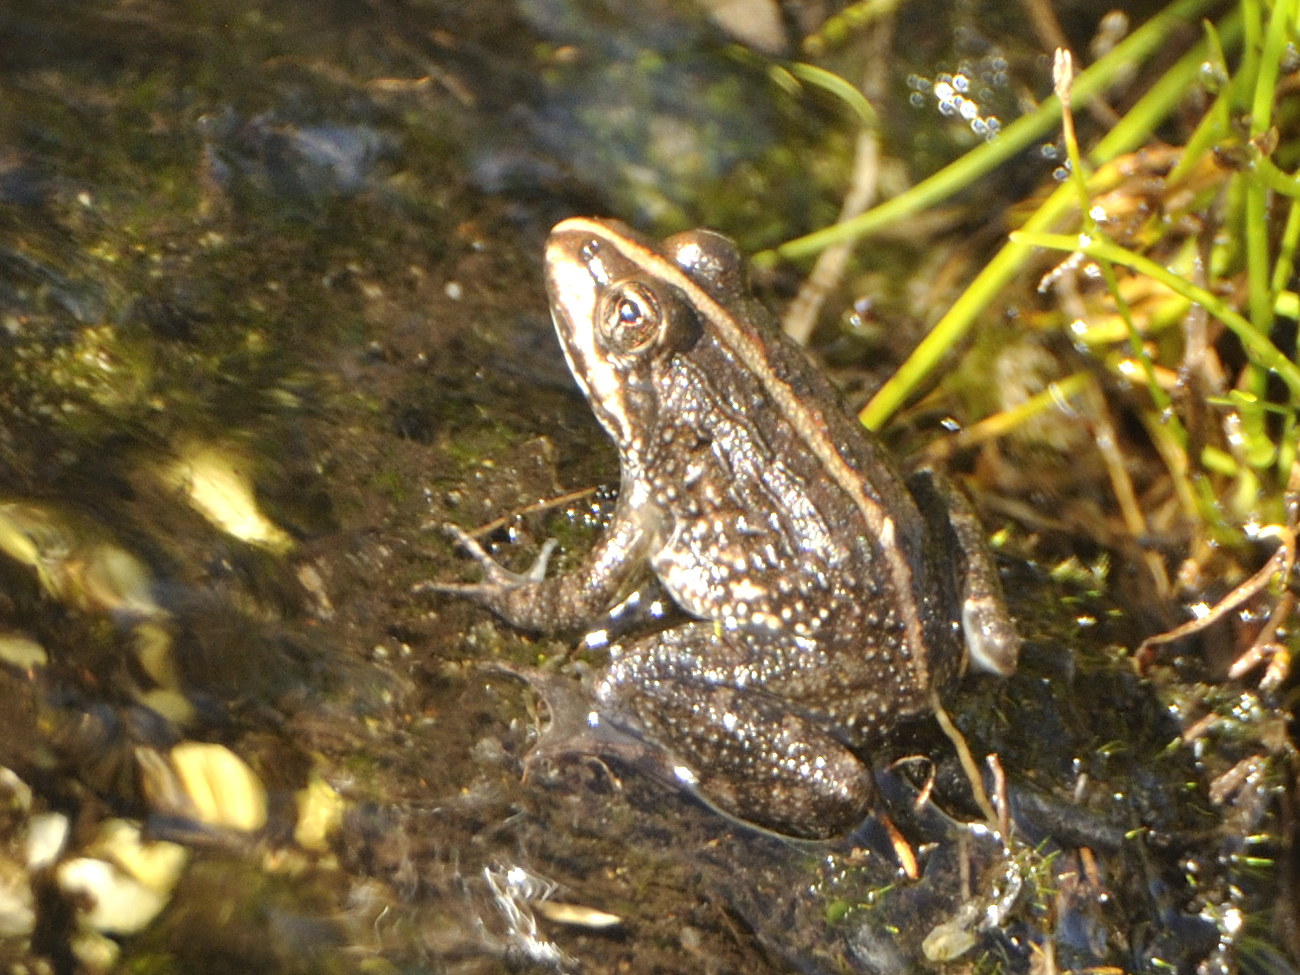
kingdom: Animalia
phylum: Chordata
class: Amphibia
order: Anura
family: Pyxicephalidae
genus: Amietia
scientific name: Amietia fuscigula
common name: Cape rana
